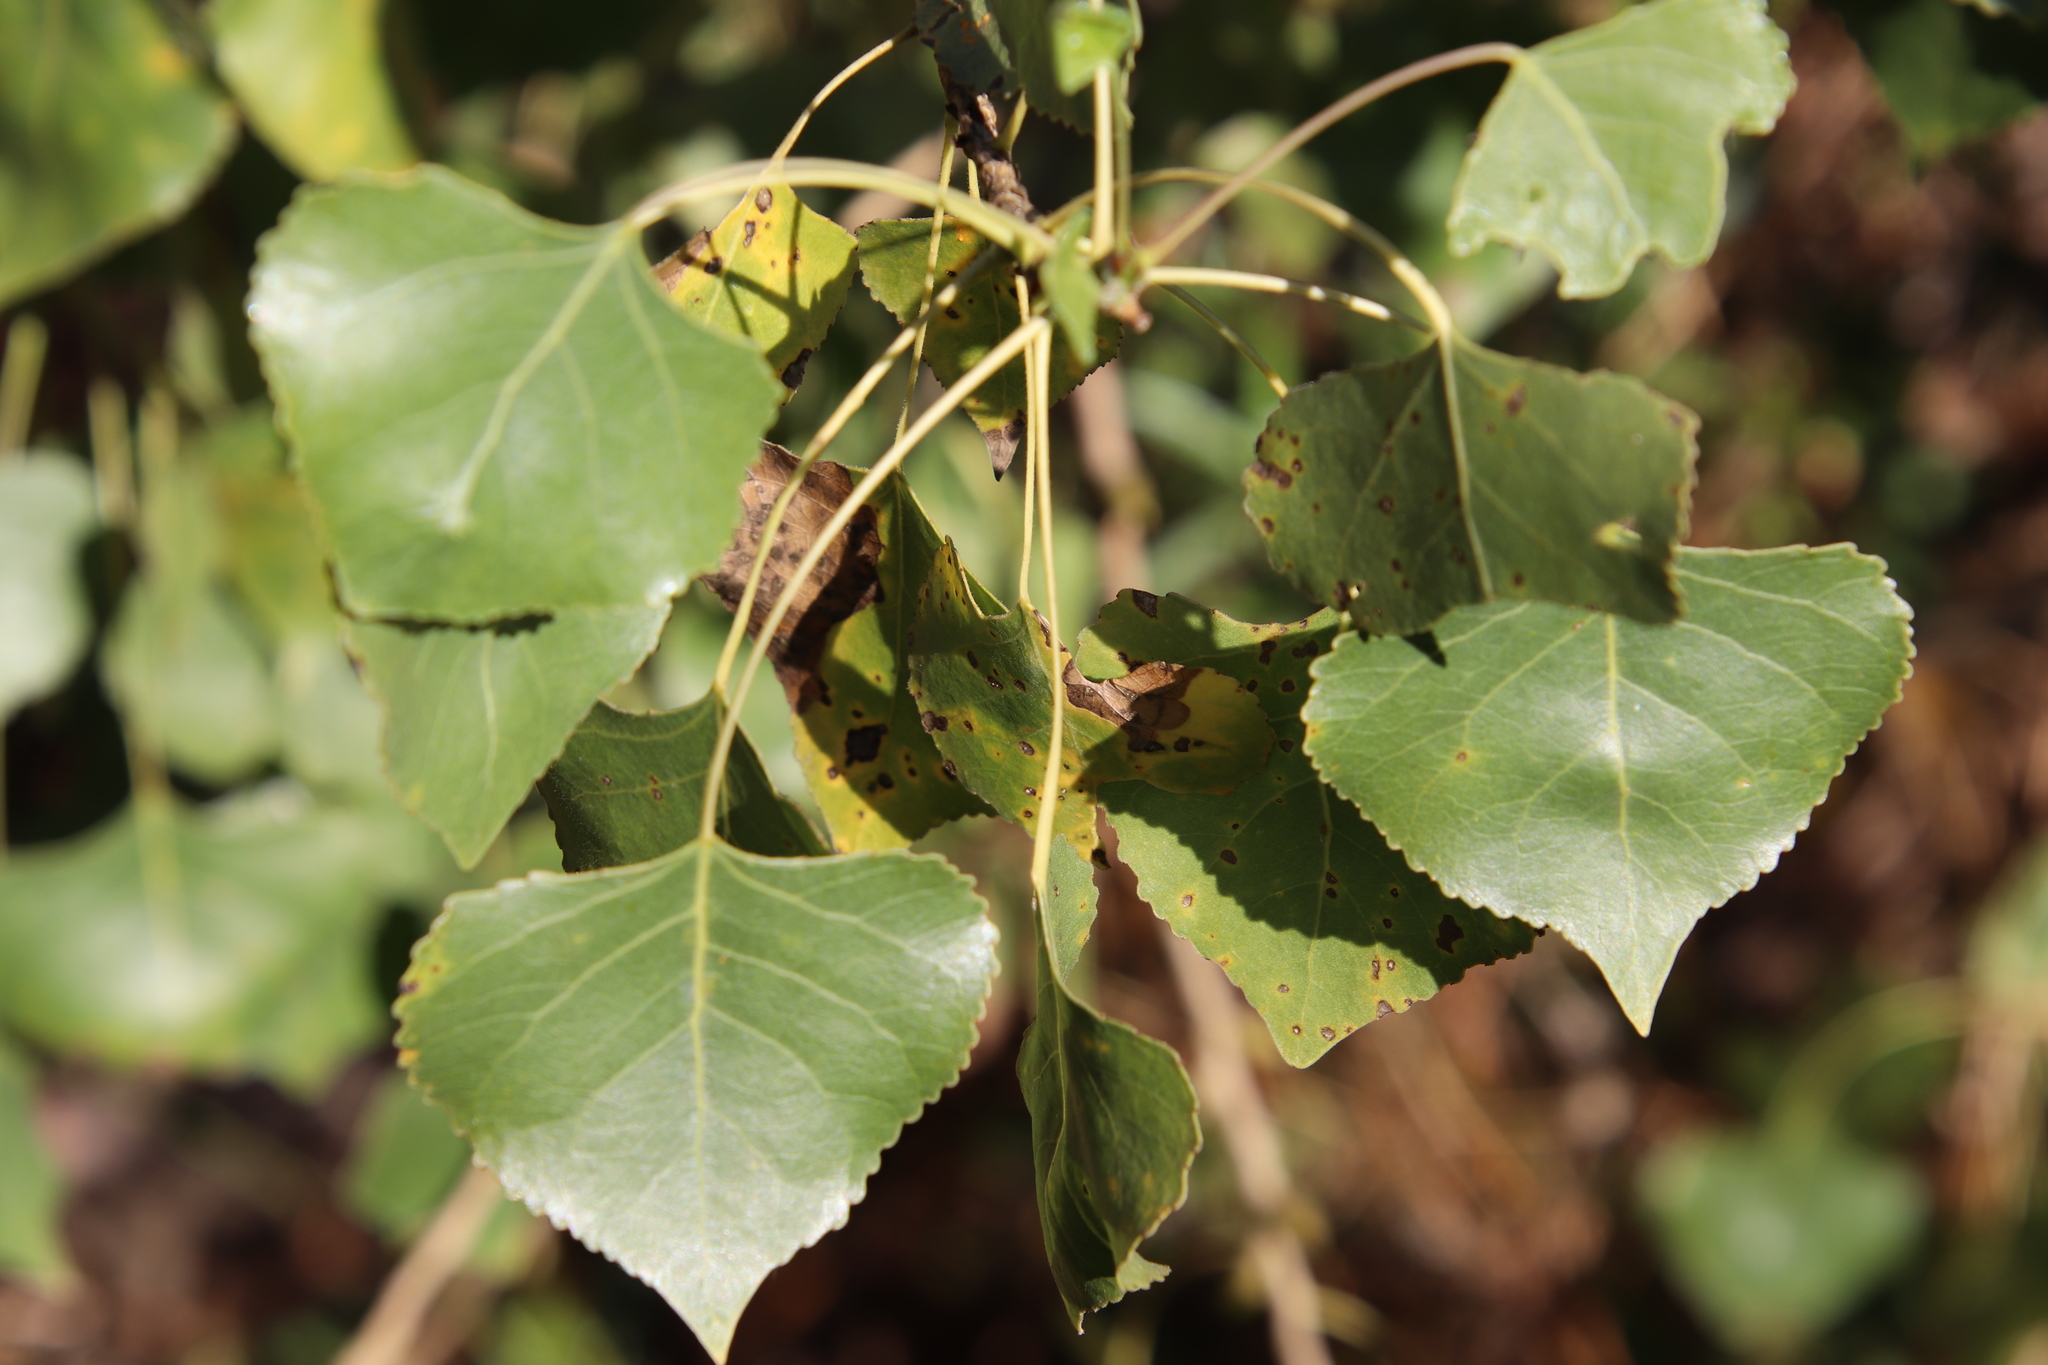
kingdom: Plantae
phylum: Tracheophyta
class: Magnoliopsida
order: Malpighiales
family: Salicaceae
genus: Populus
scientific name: Populus fremontii
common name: Fremont's cottonwood
